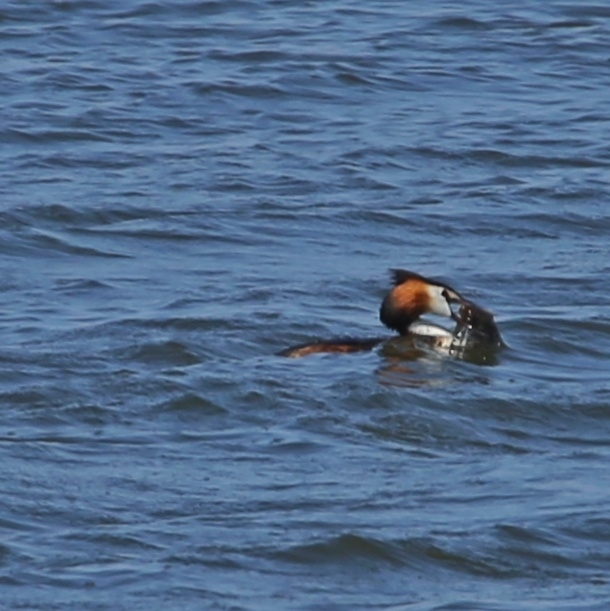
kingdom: Animalia
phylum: Chordata
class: Aves
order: Podicipediformes
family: Podicipedidae
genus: Podiceps
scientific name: Podiceps cristatus
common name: Great crested grebe
